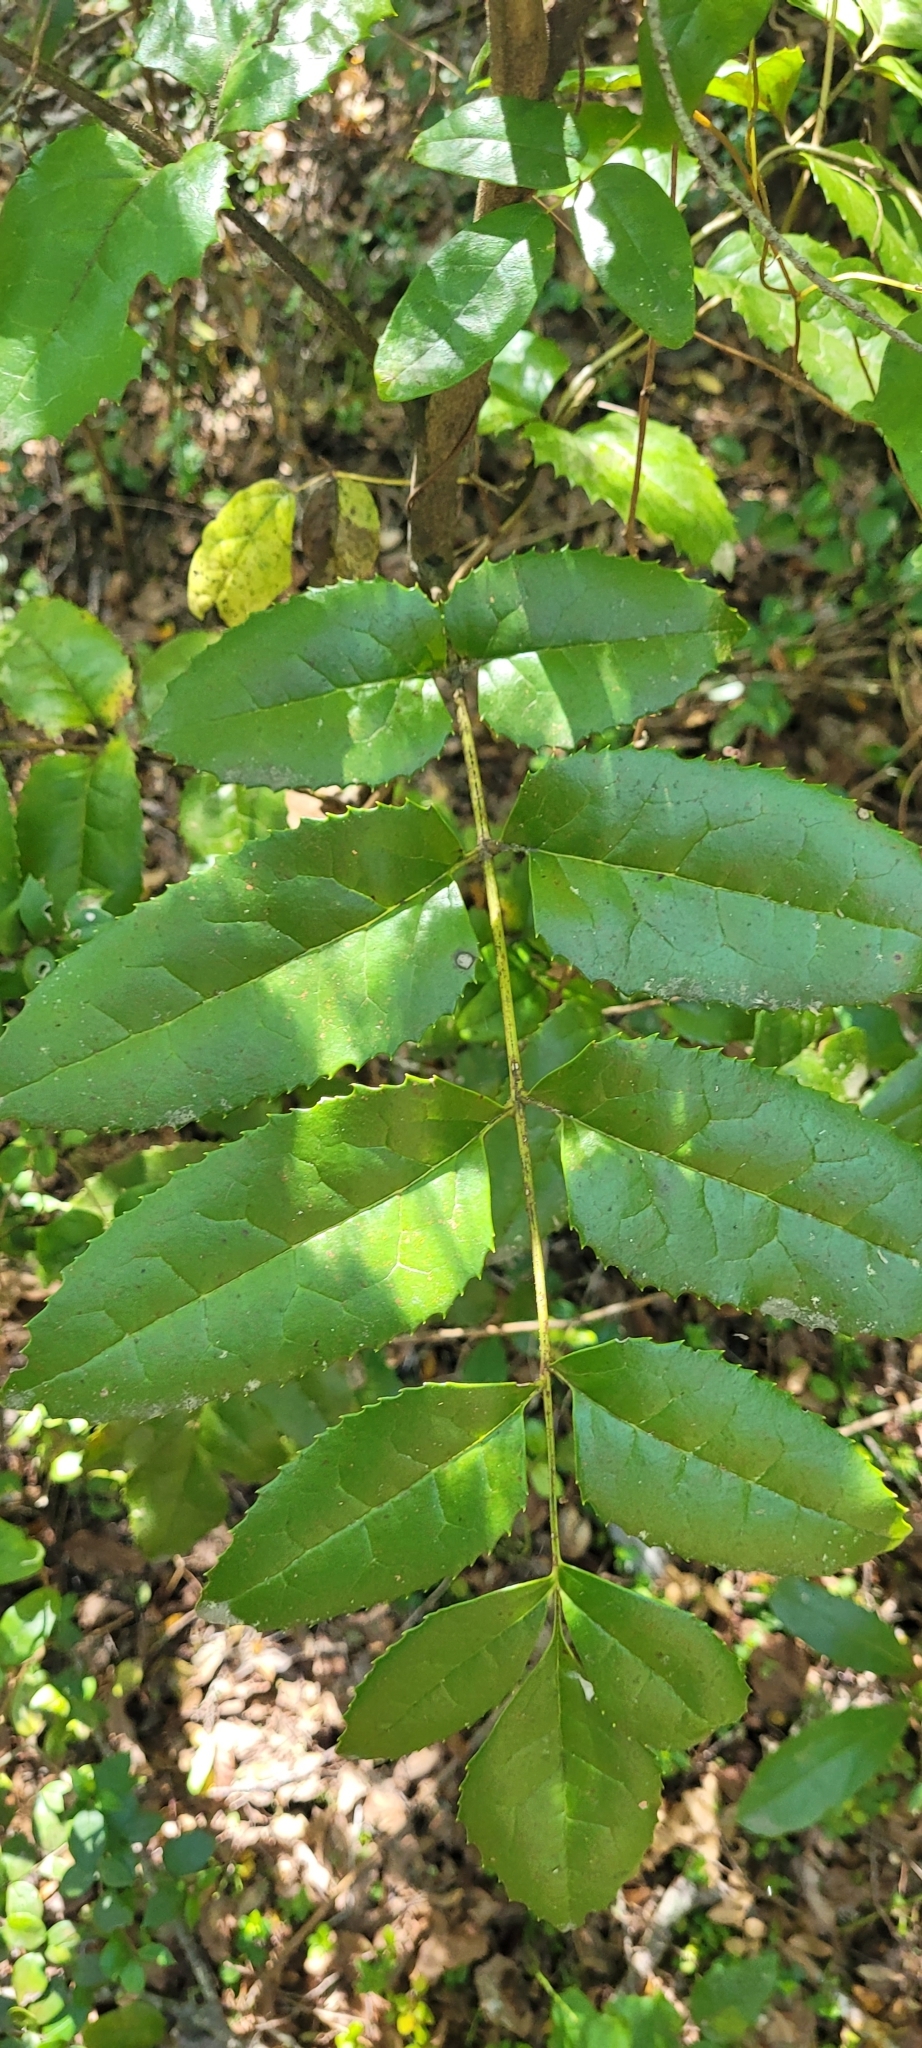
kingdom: Plantae
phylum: Tracheophyta
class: Magnoliopsida
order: Proteales
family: Proteaceae
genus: Gevuina
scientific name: Gevuina avellana
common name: Chilean hazel
